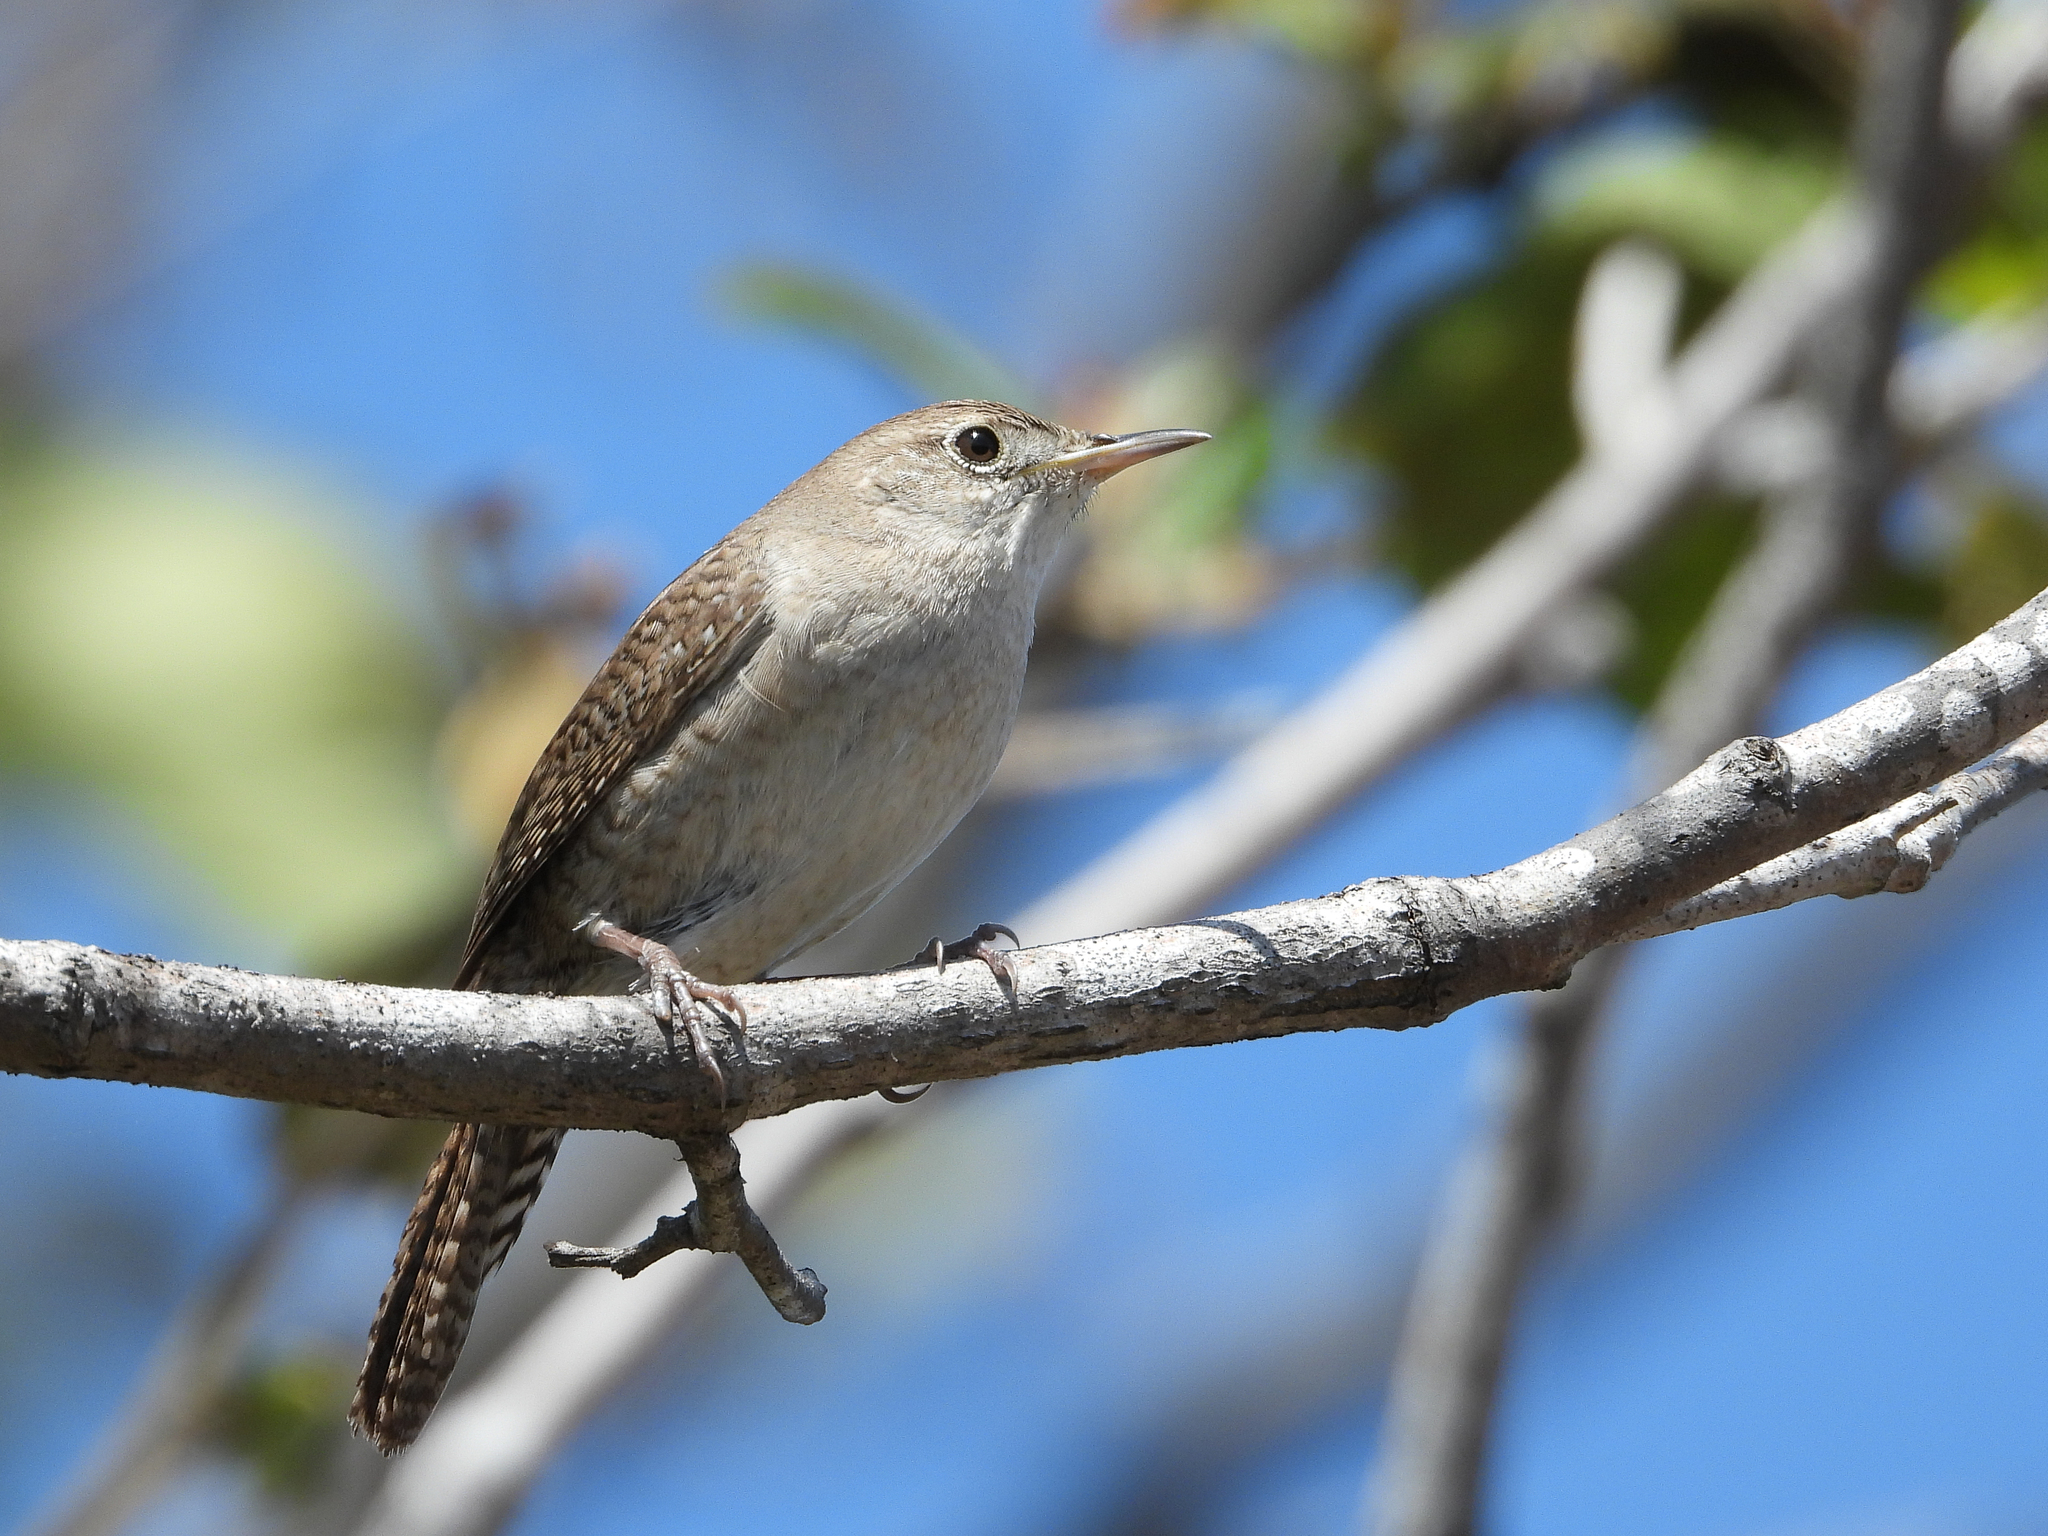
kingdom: Animalia
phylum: Chordata
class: Aves
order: Passeriformes
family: Troglodytidae
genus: Troglodytes
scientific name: Troglodytes aedon
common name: House wren
